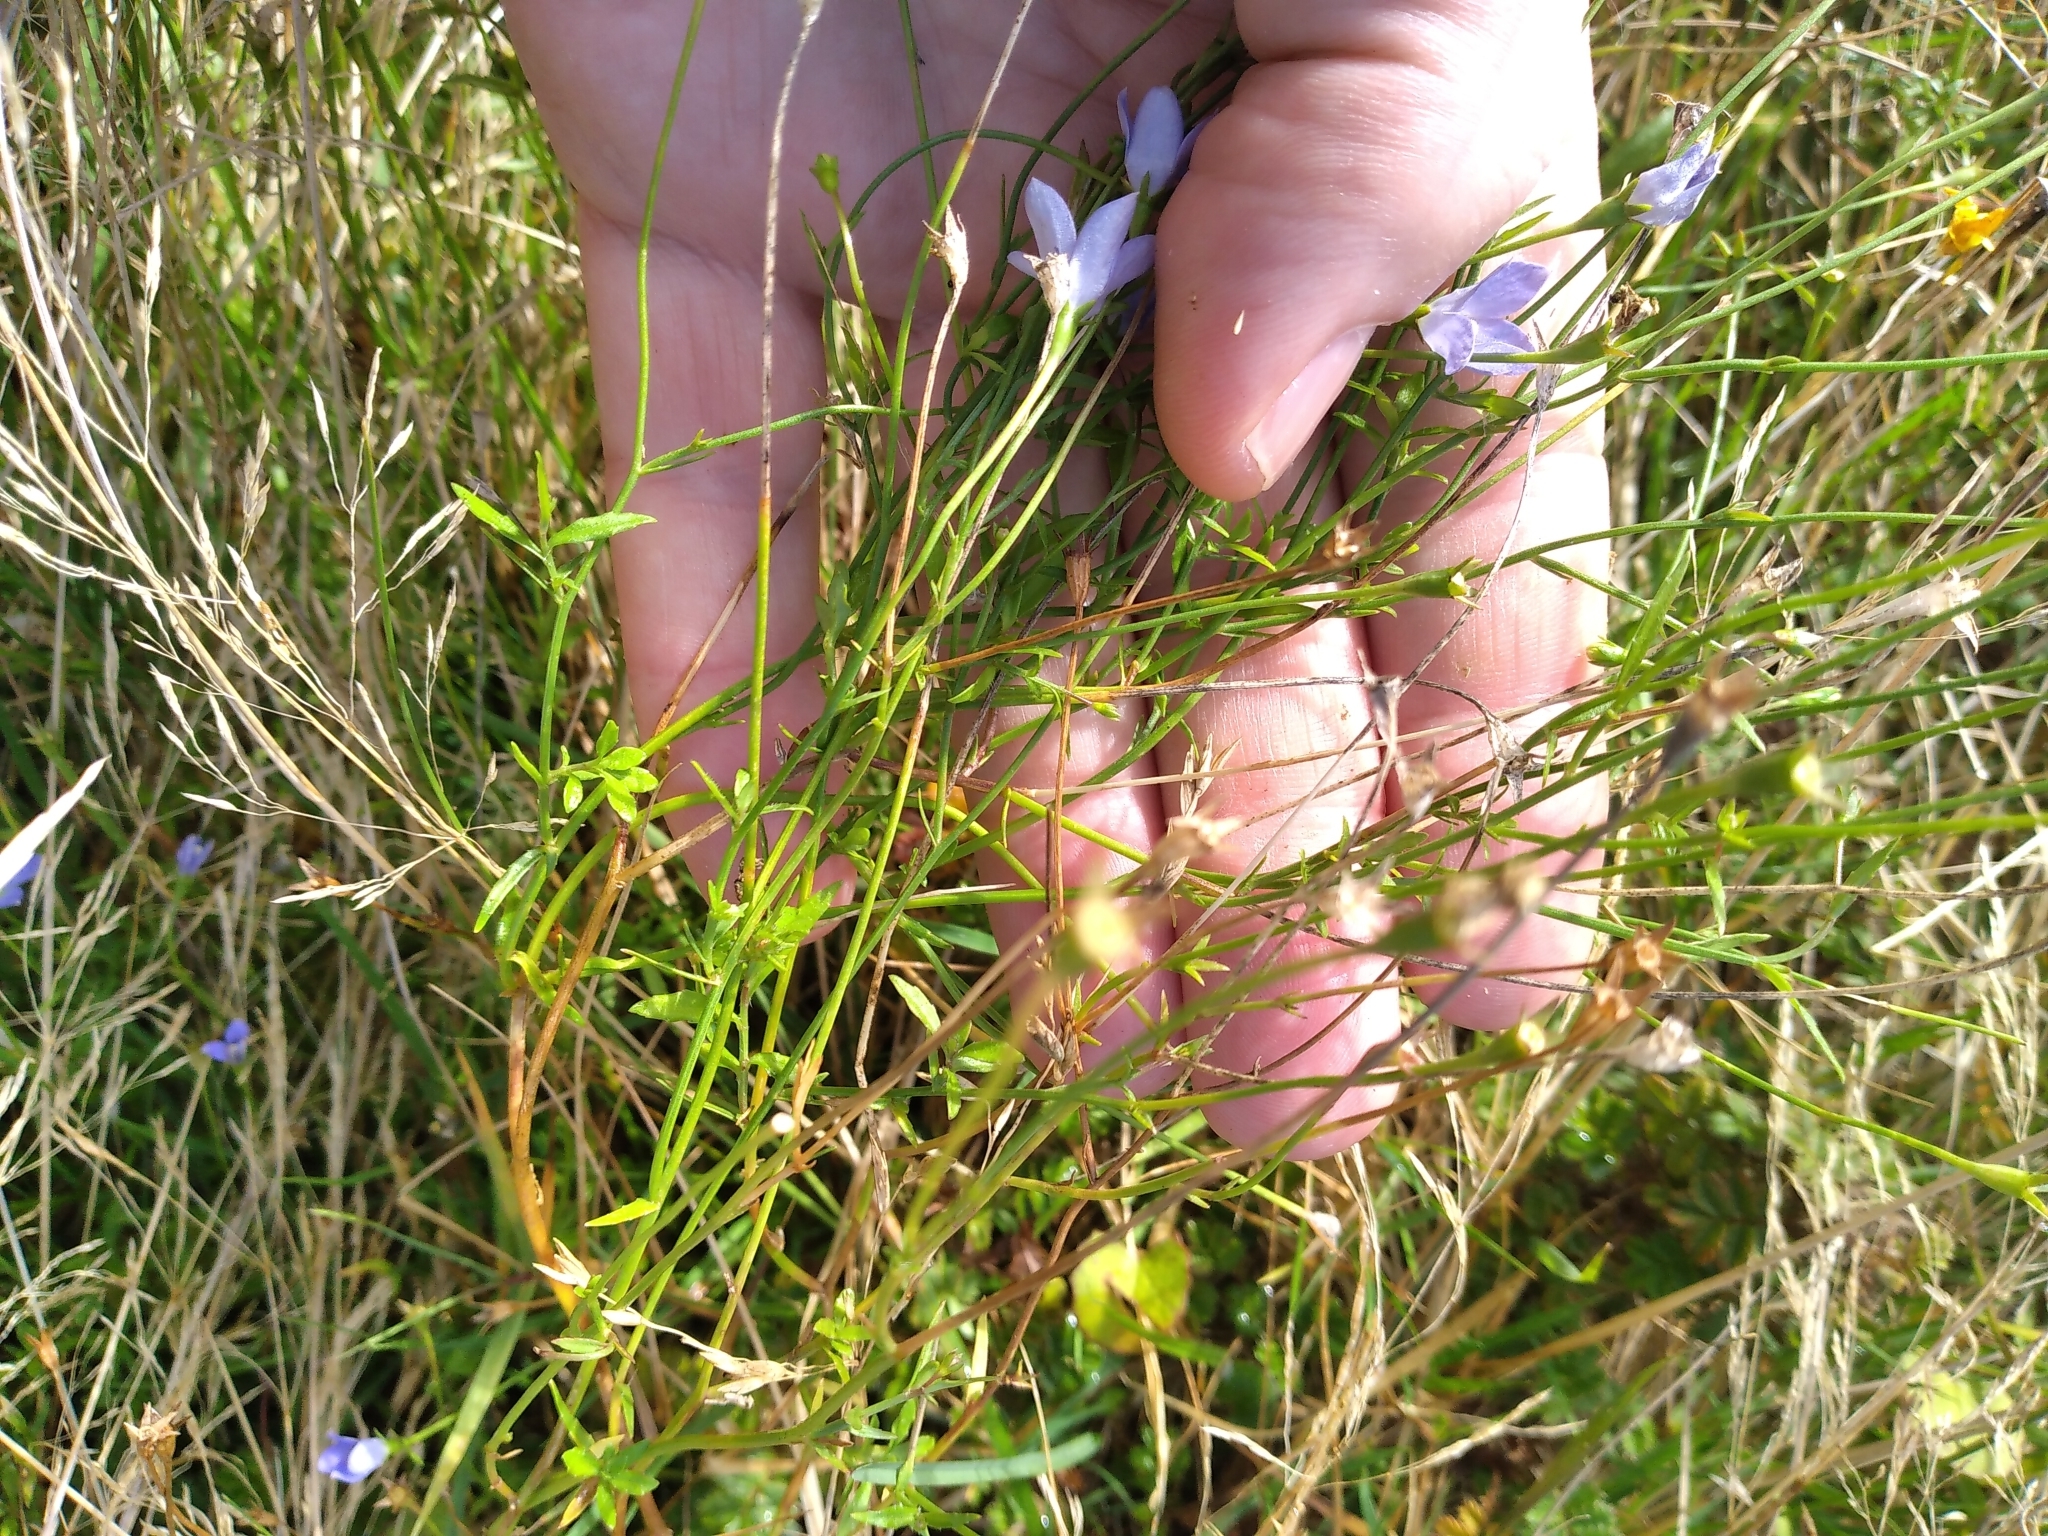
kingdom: Plantae
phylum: Tracheophyta
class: Magnoliopsida
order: Asterales
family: Campanulaceae
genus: Wahlenbergia
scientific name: Wahlenbergia violacea
